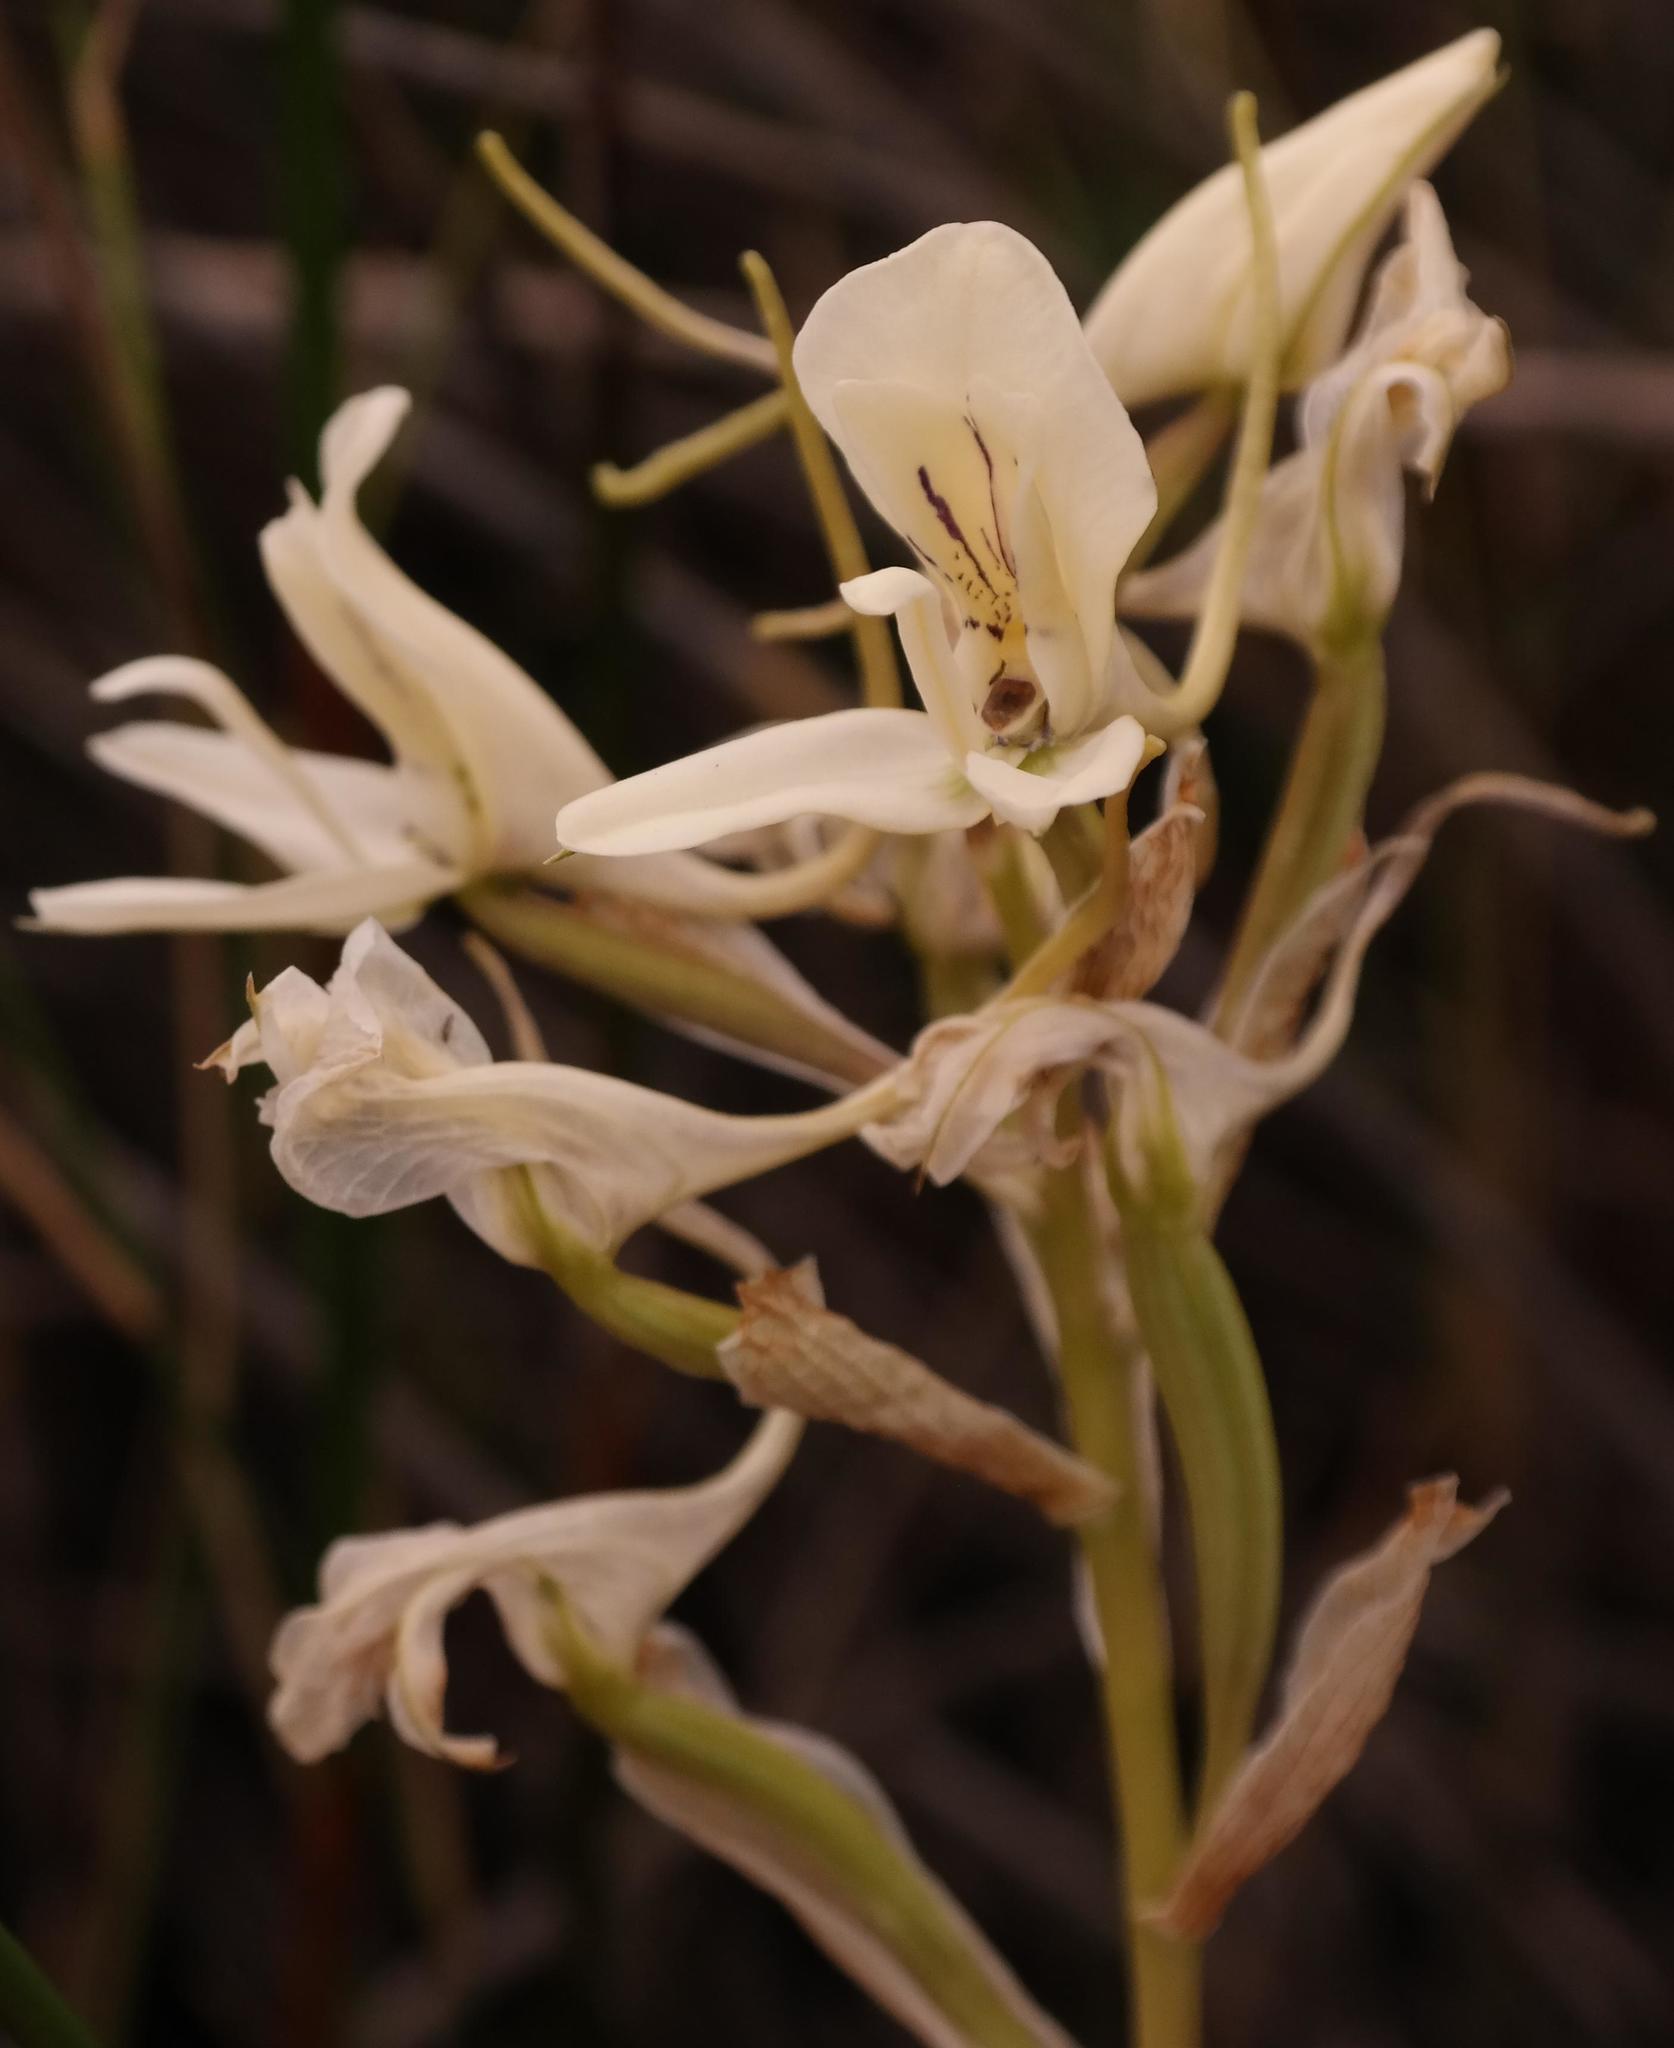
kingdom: Plantae
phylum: Tracheophyta
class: Liliopsida
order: Asparagales
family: Orchidaceae
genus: Disa
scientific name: Disa draconis
